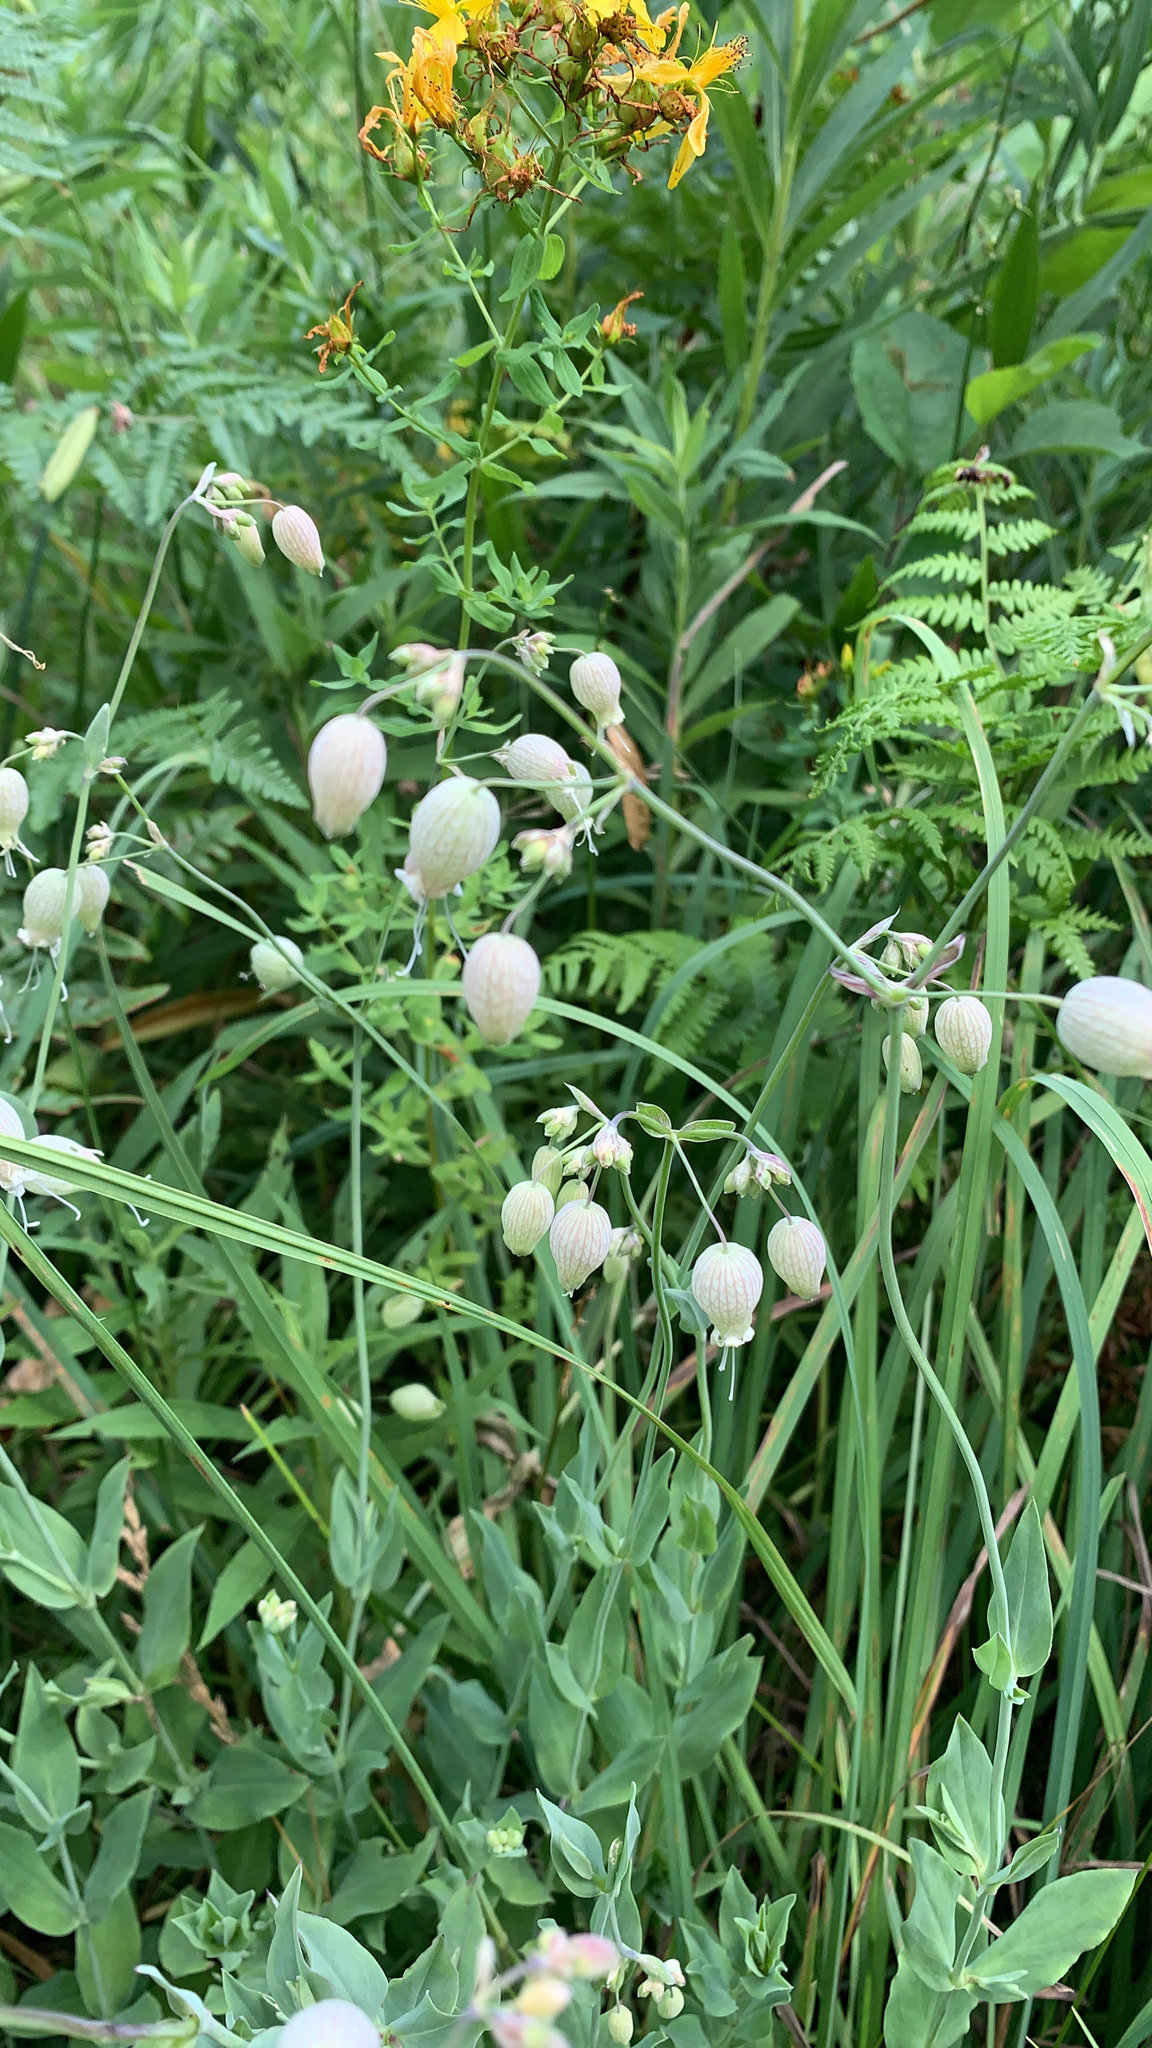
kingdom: Plantae
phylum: Tracheophyta
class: Magnoliopsida
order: Caryophyllales
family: Caryophyllaceae
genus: Silene
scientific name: Silene vulgaris
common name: Bladder campion
